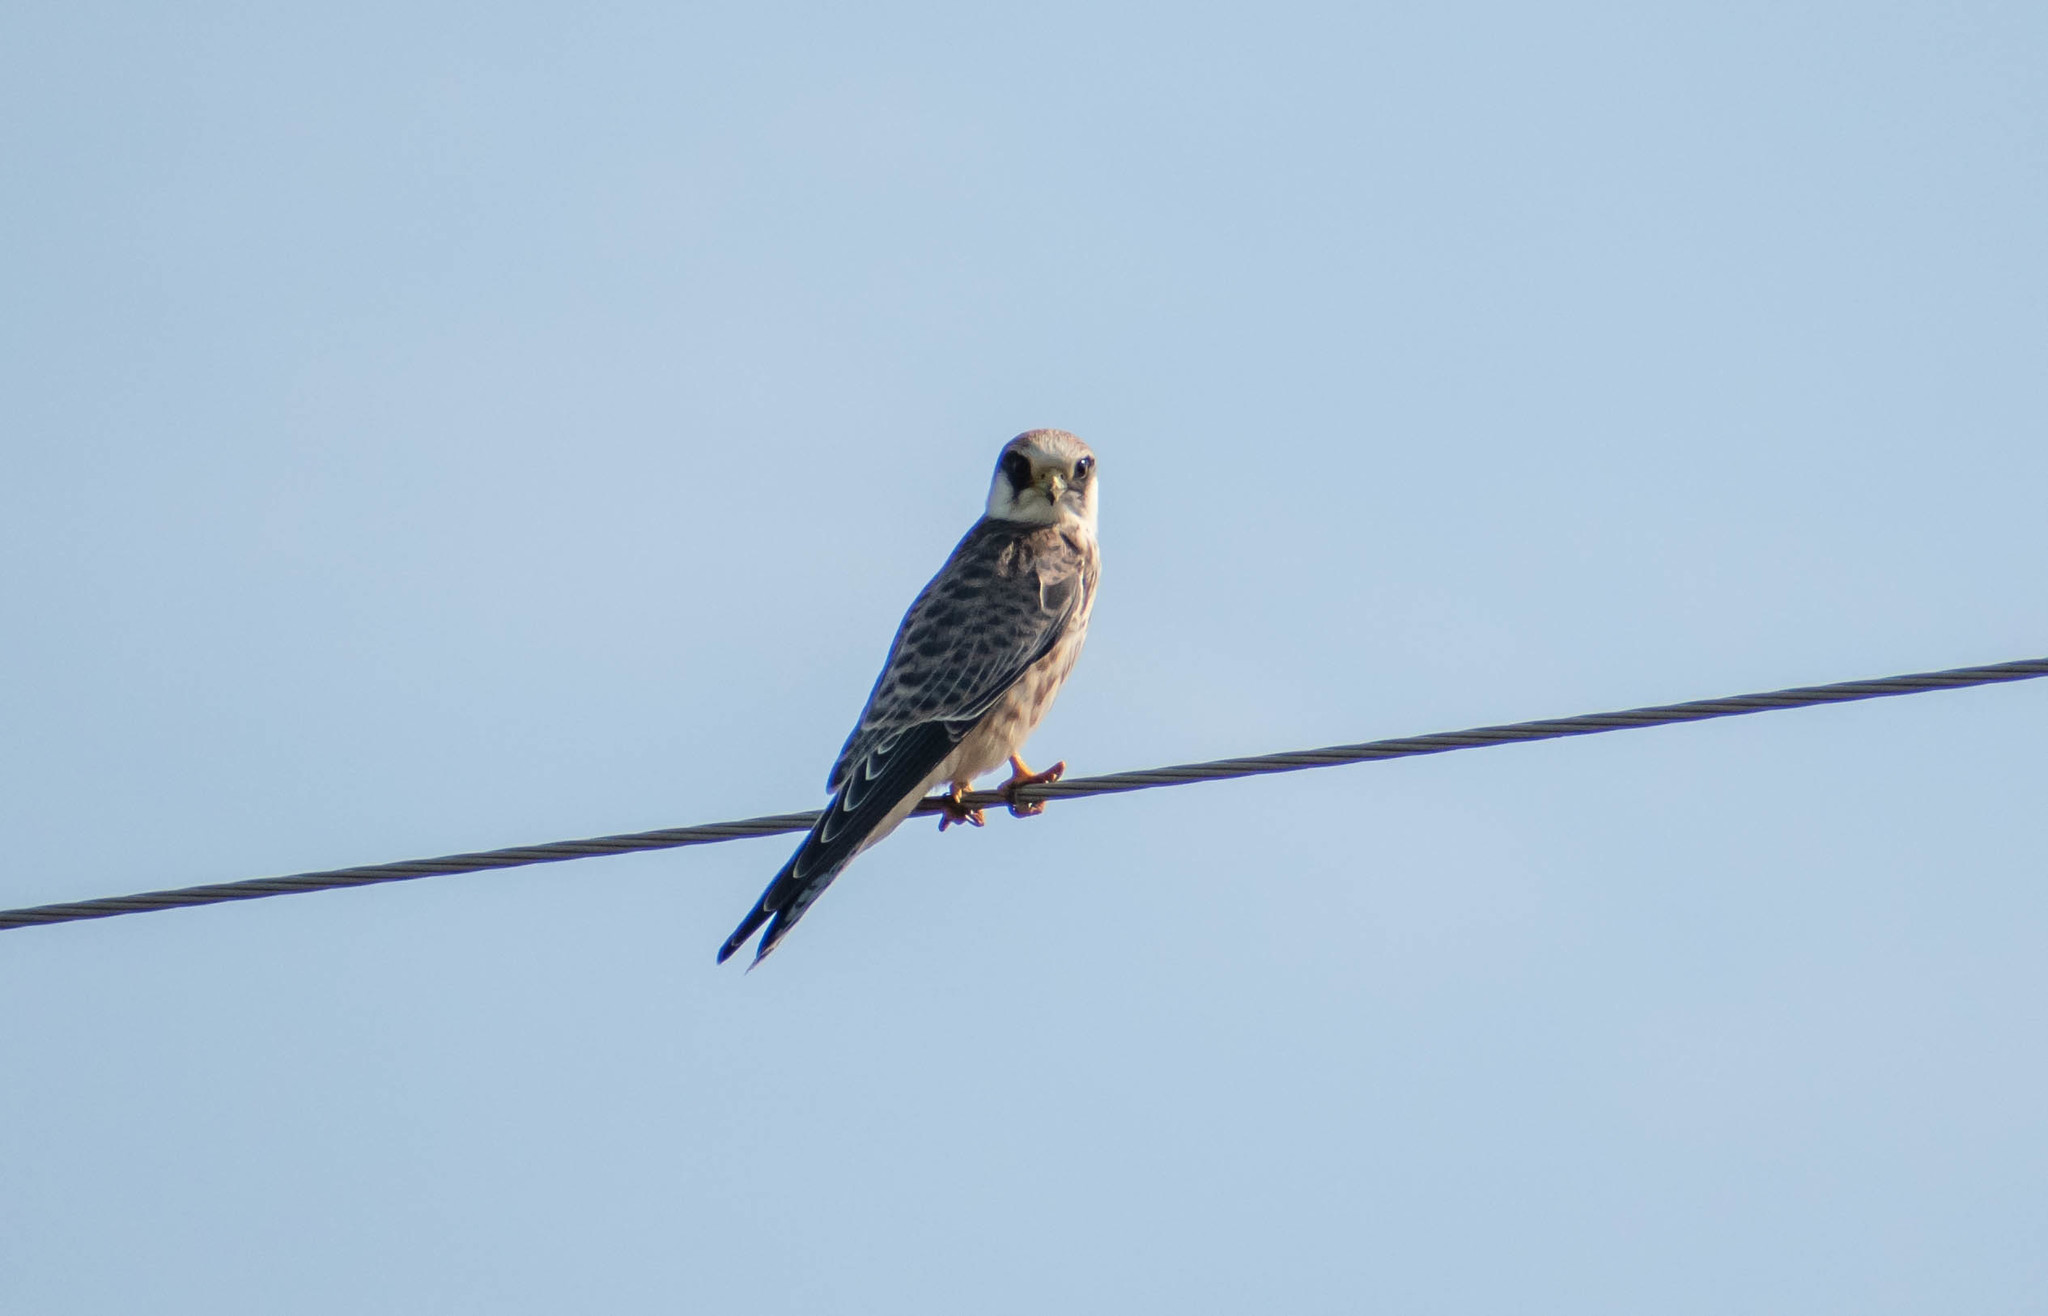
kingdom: Animalia
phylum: Chordata
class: Aves
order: Falconiformes
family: Falconidae
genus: Falco
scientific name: Falco vespertinus
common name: Red-footed falcon
